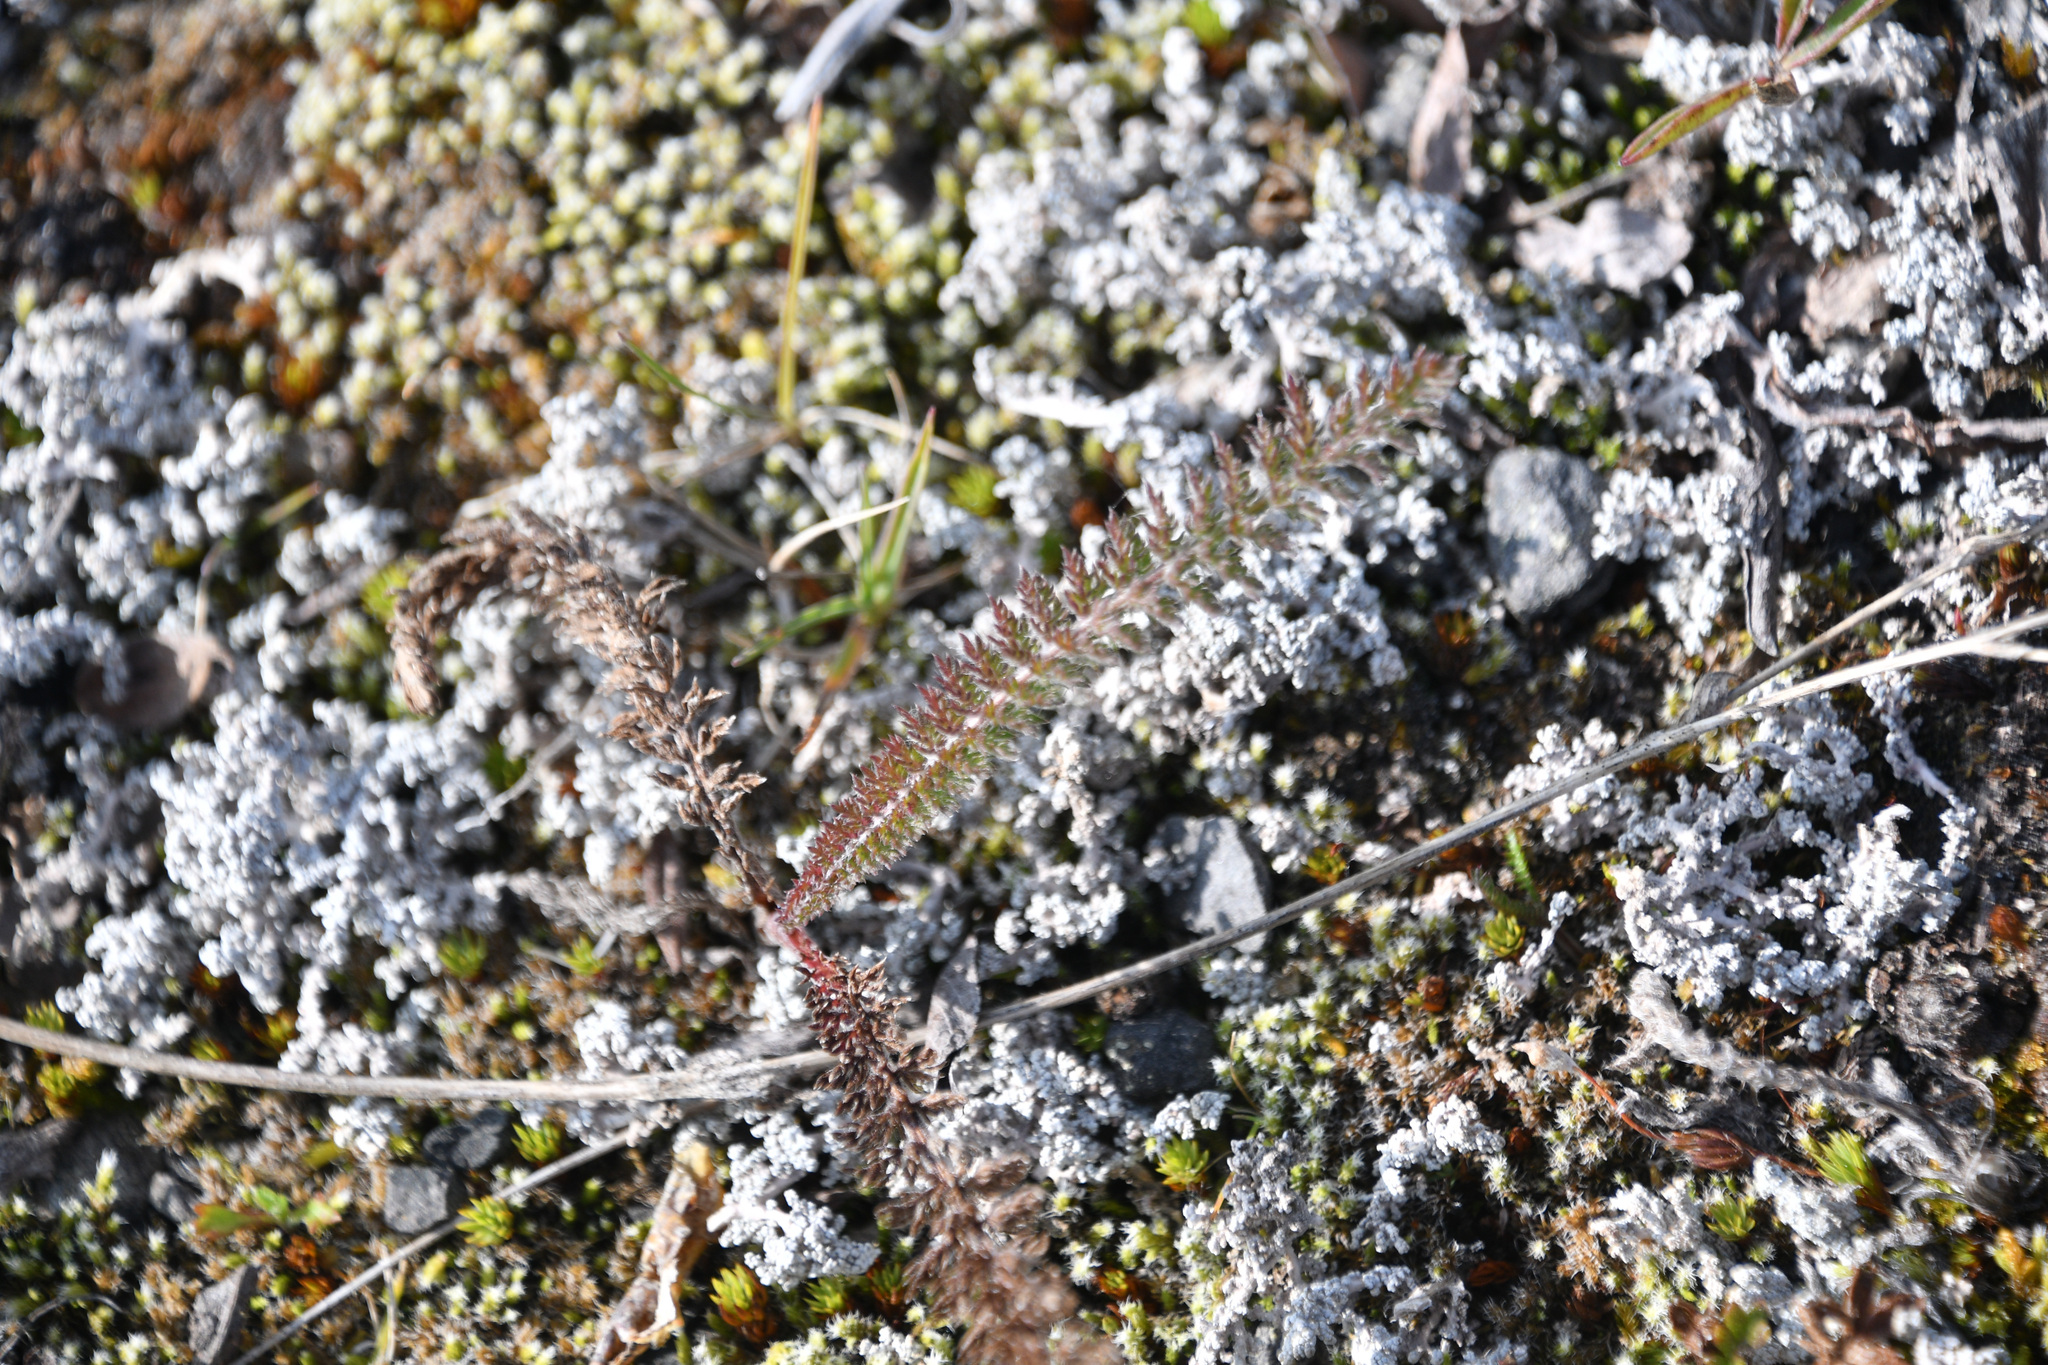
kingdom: Plantae
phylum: Tracheophyta
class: Magnoliopsida
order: Asterales
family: Asteraceae
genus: Achillea
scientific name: Achillea millefolium
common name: Yarrow
